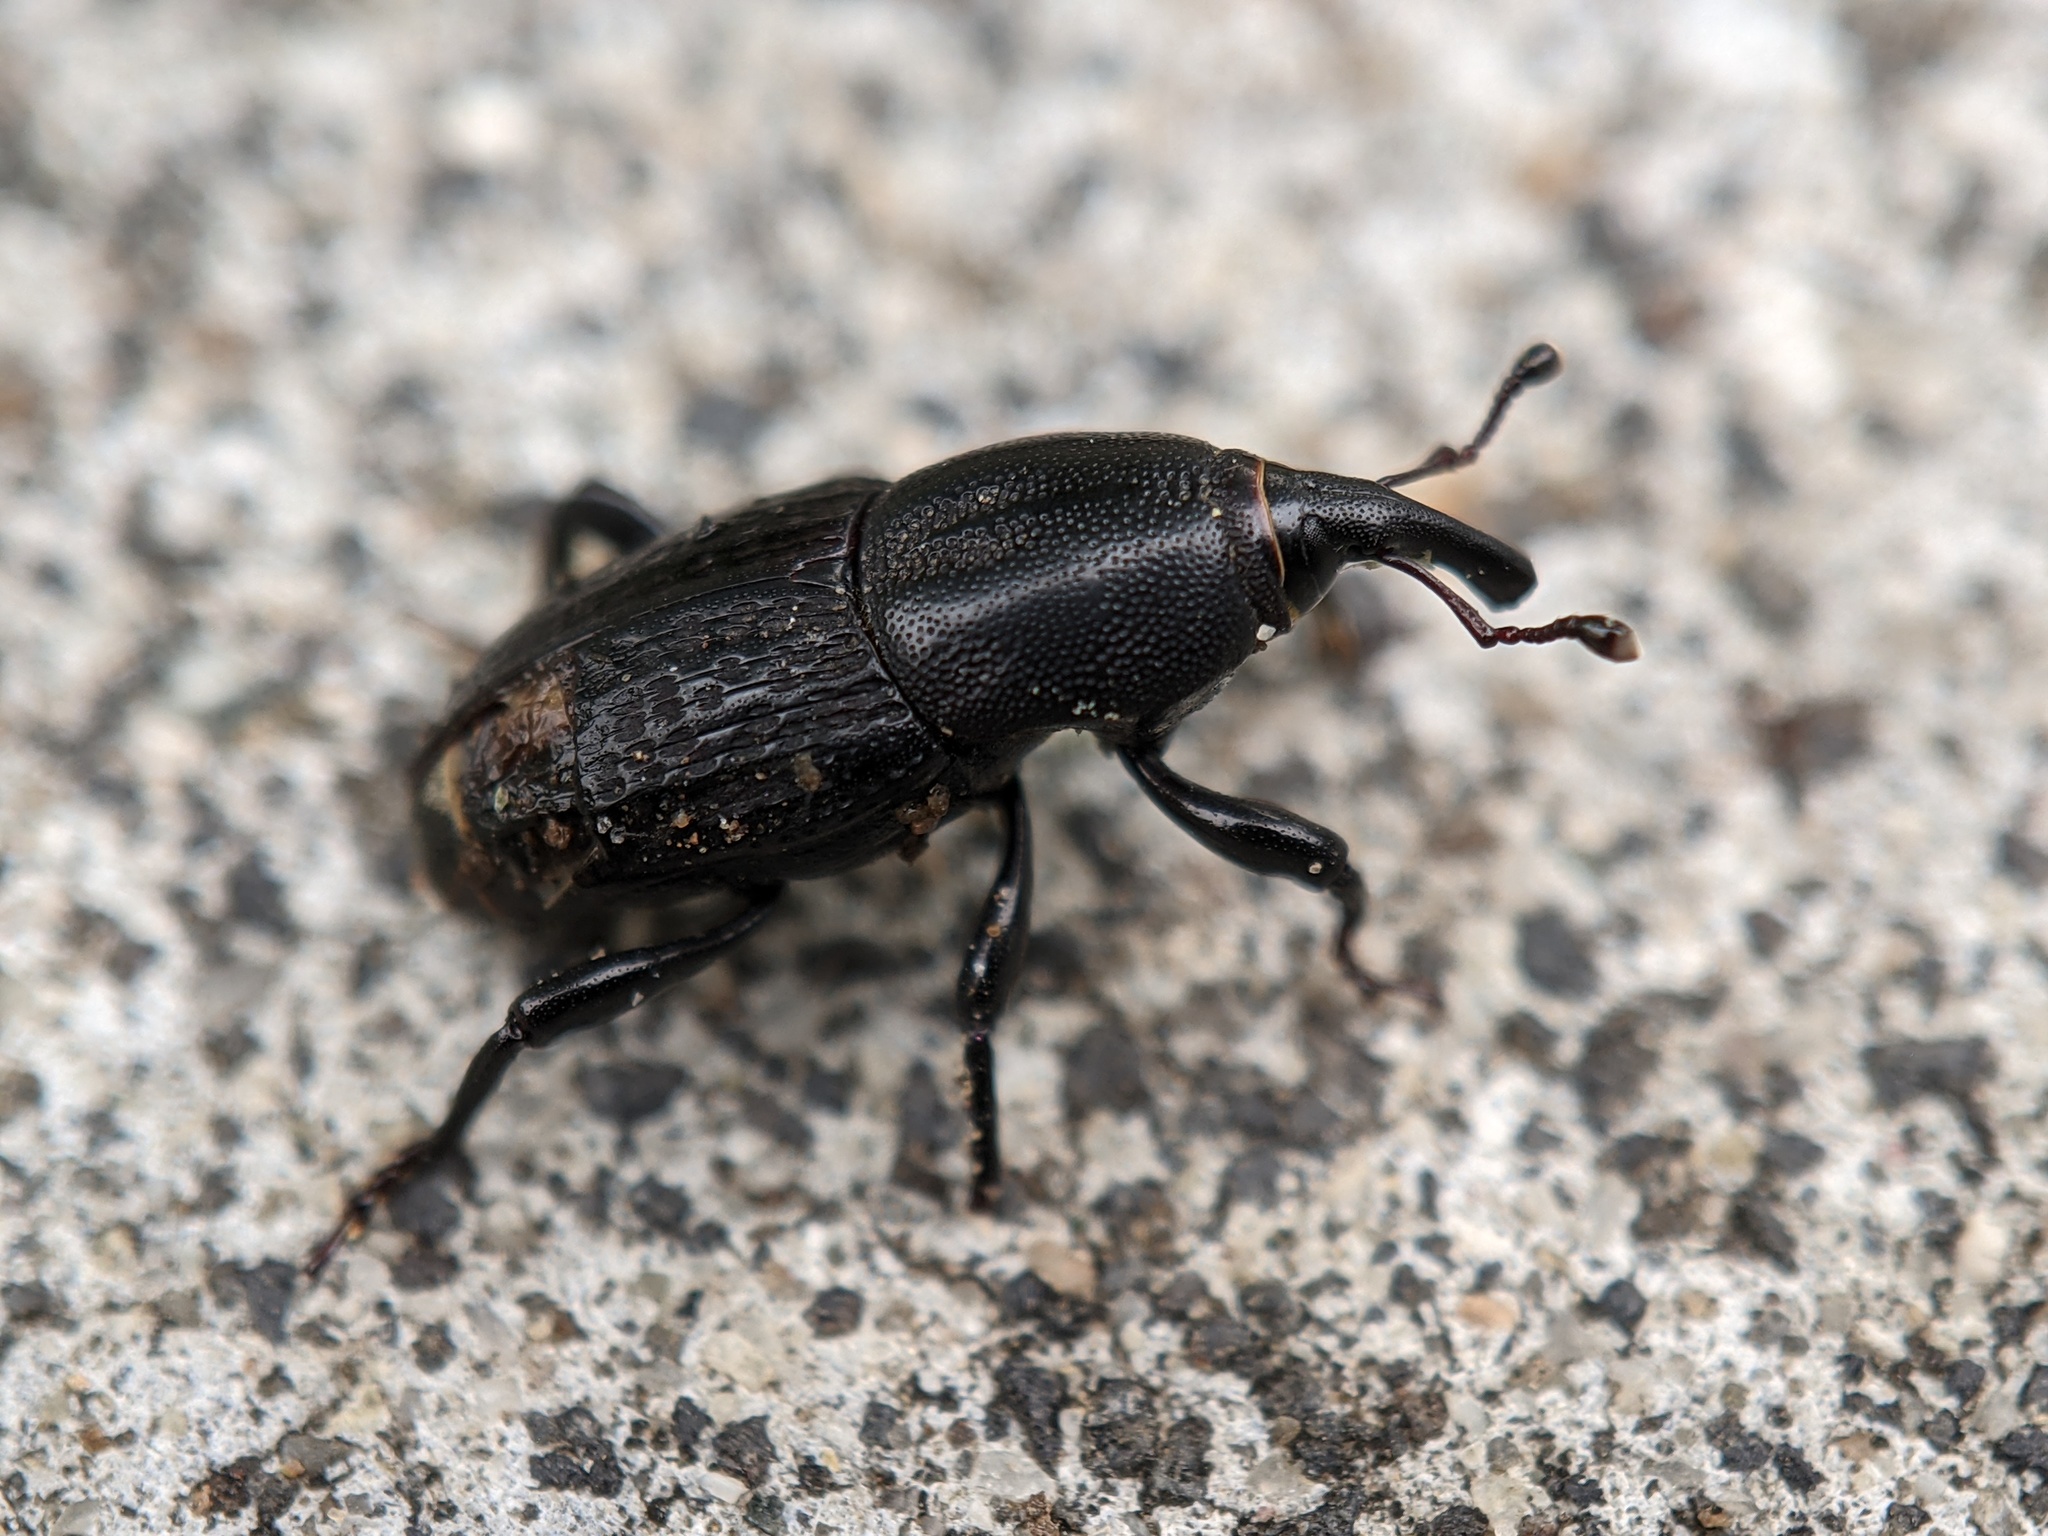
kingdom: Animalia
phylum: Arthropoda
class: Insecta
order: Coleoptera
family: Dryophthoridae
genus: Sphenophorus
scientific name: Sphenophorus cicatristriatus
